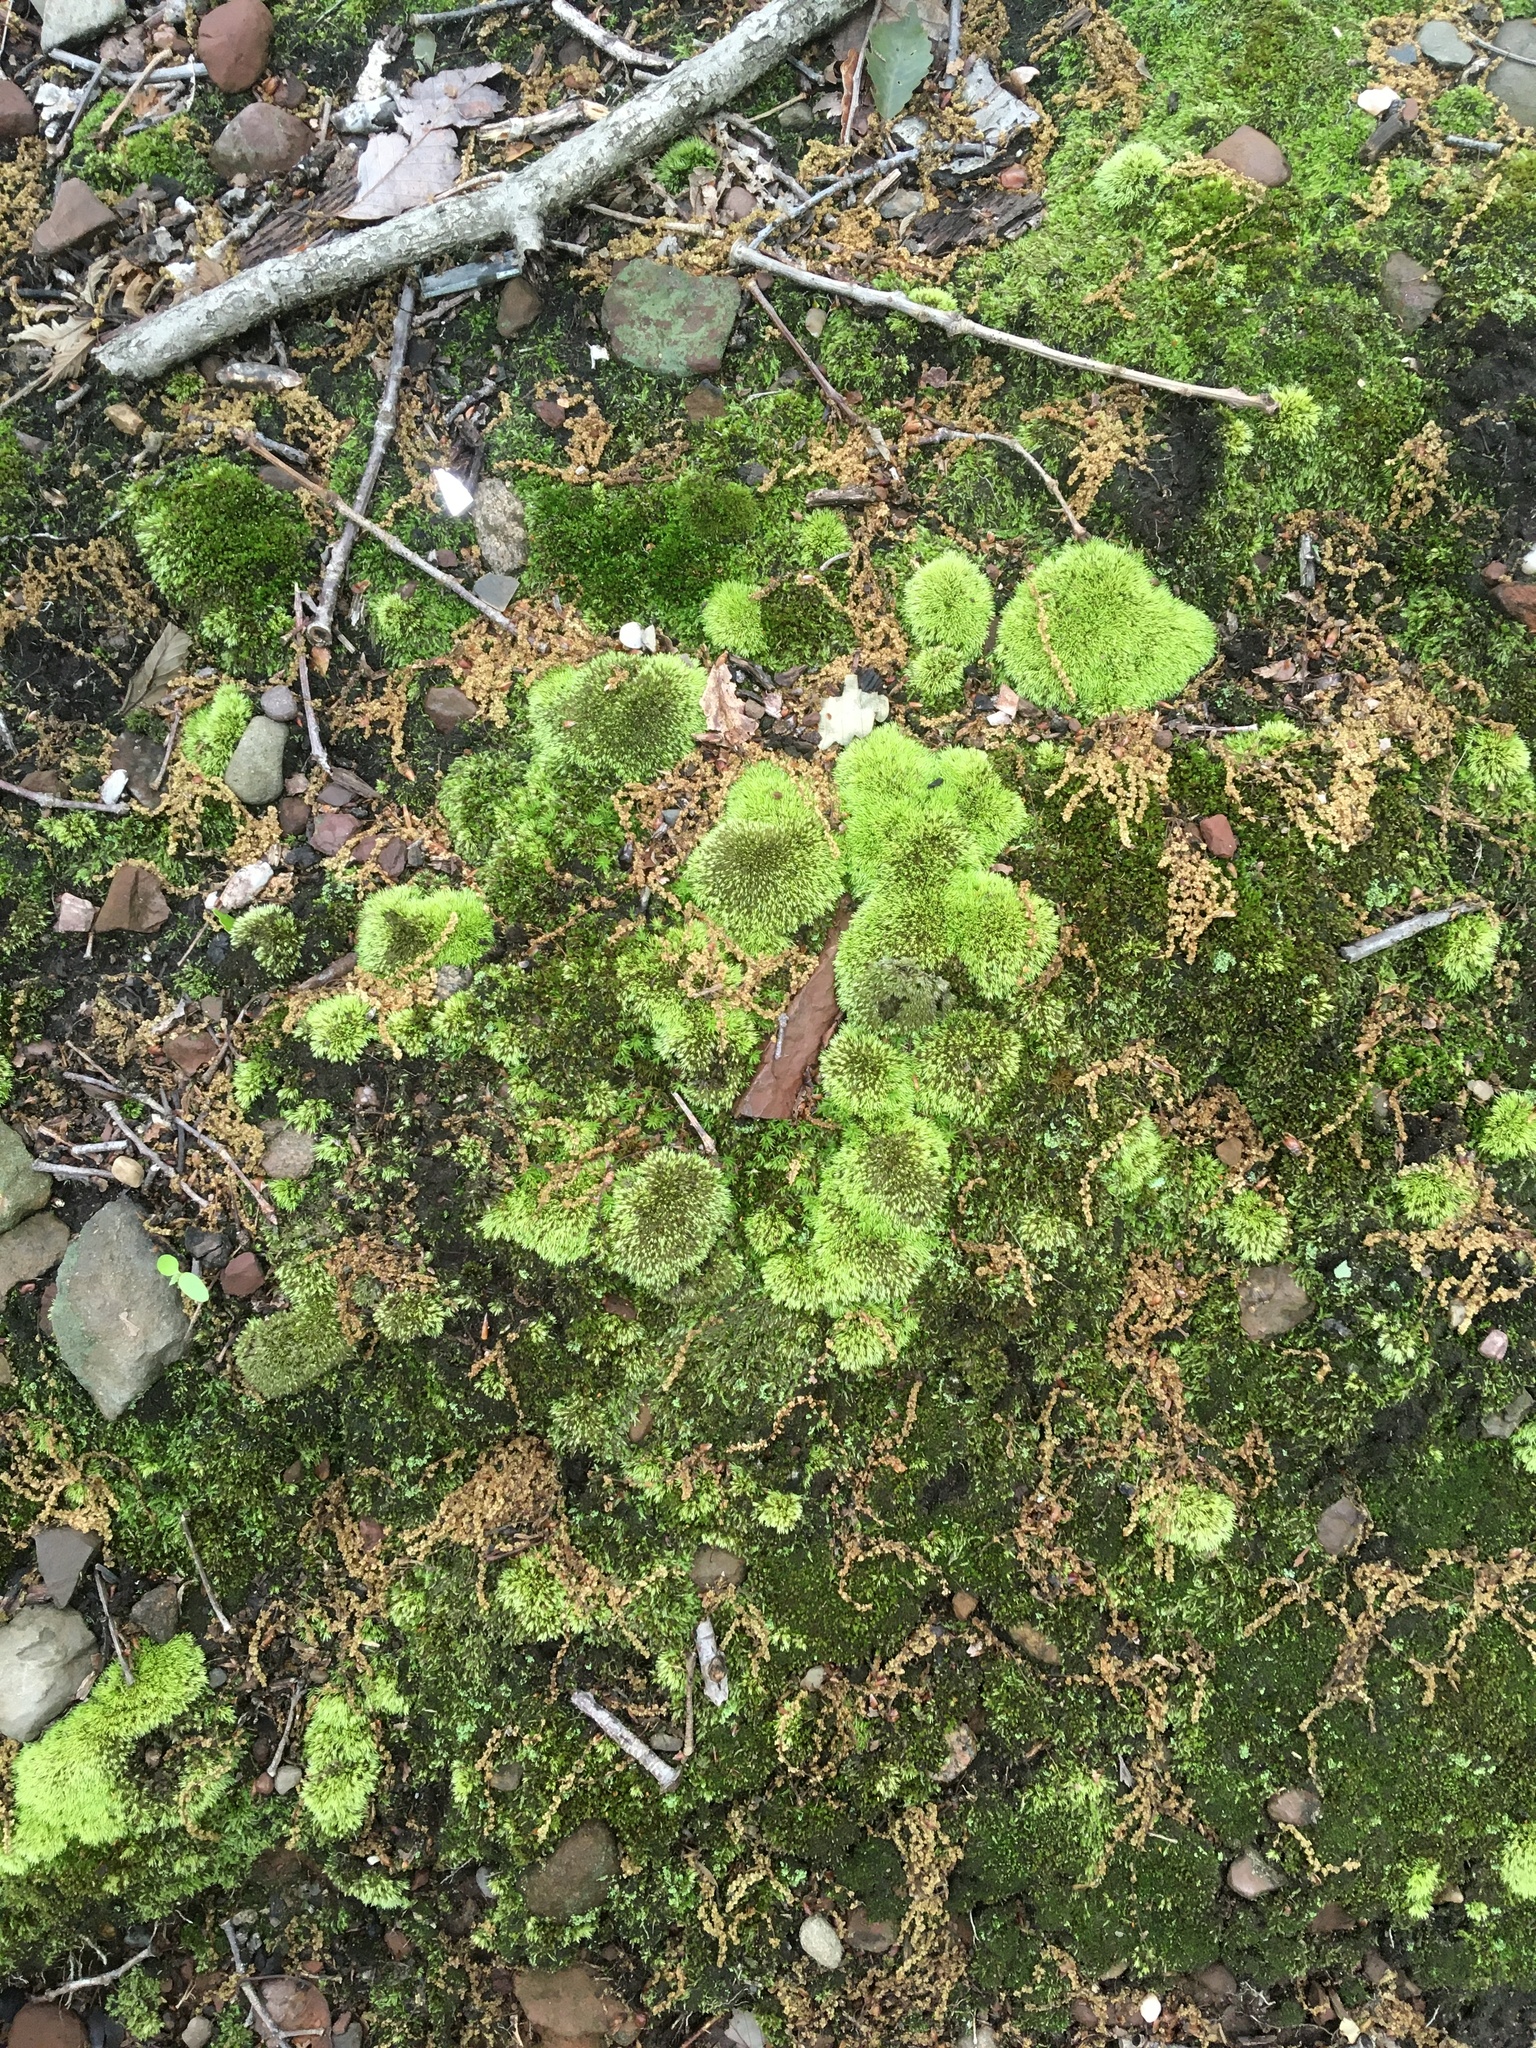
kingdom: Plantae
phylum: Bryophyta
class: Bryopsida
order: Dicranales
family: Leucobryaceae
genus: Leucobryum
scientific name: Leucobryum glaucum
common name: Large white-moss
